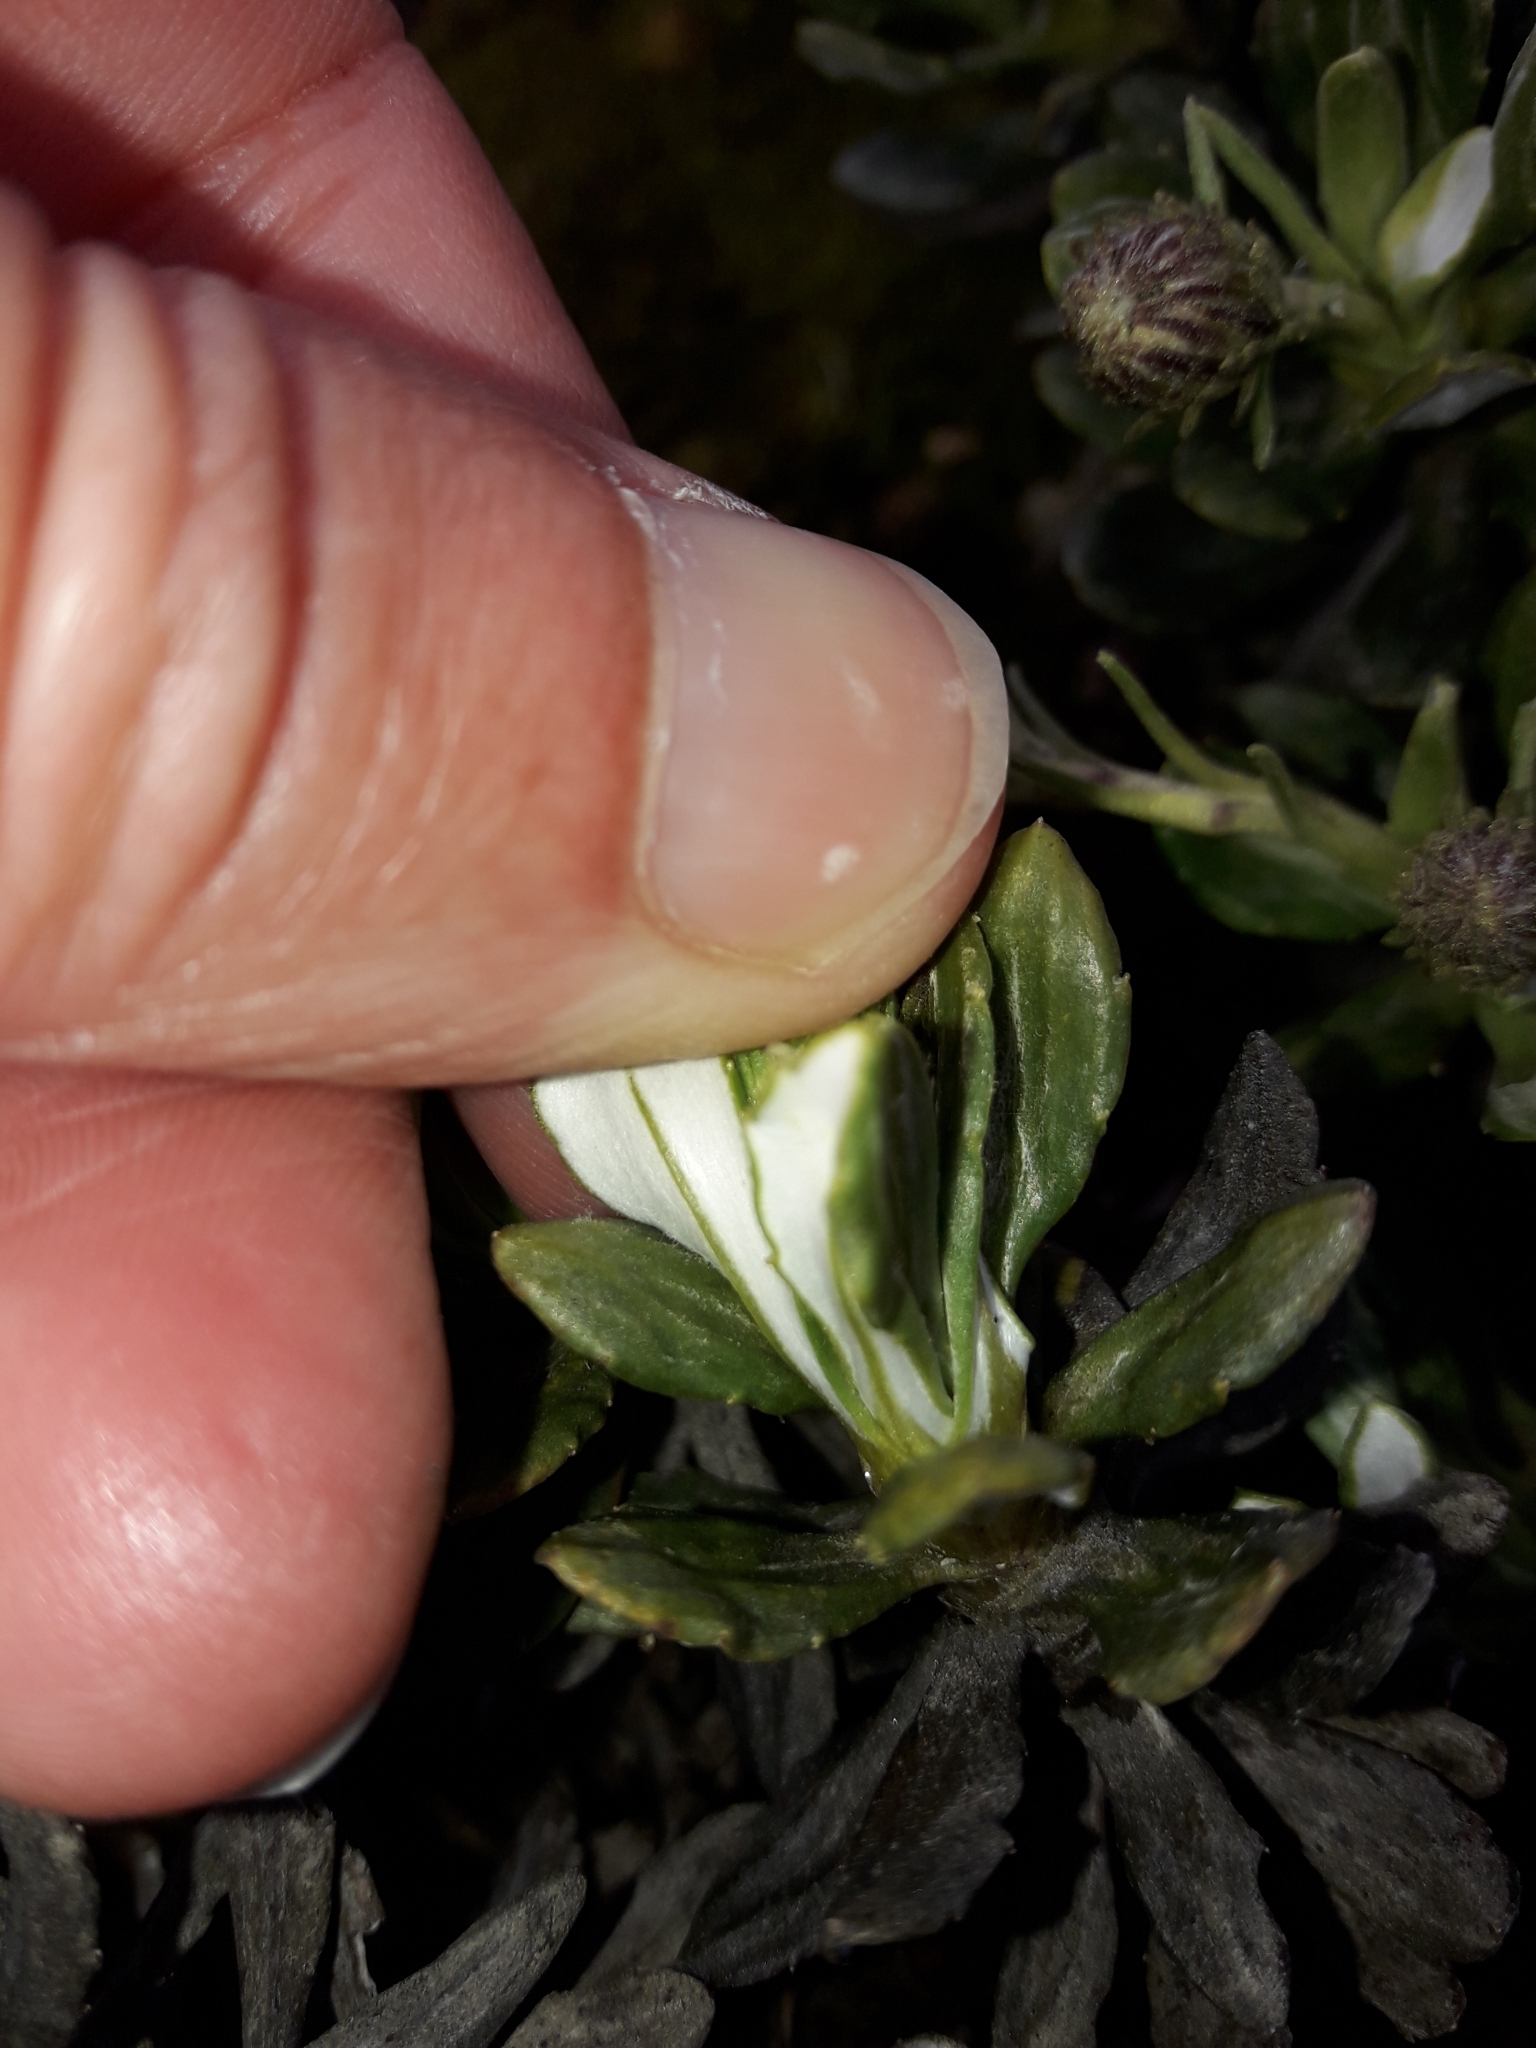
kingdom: Plantae
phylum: Tracheophyta
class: Magnoliopsida
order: Asterales
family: Asteraceae
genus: Celmisia
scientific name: Celmisia brevifolia
